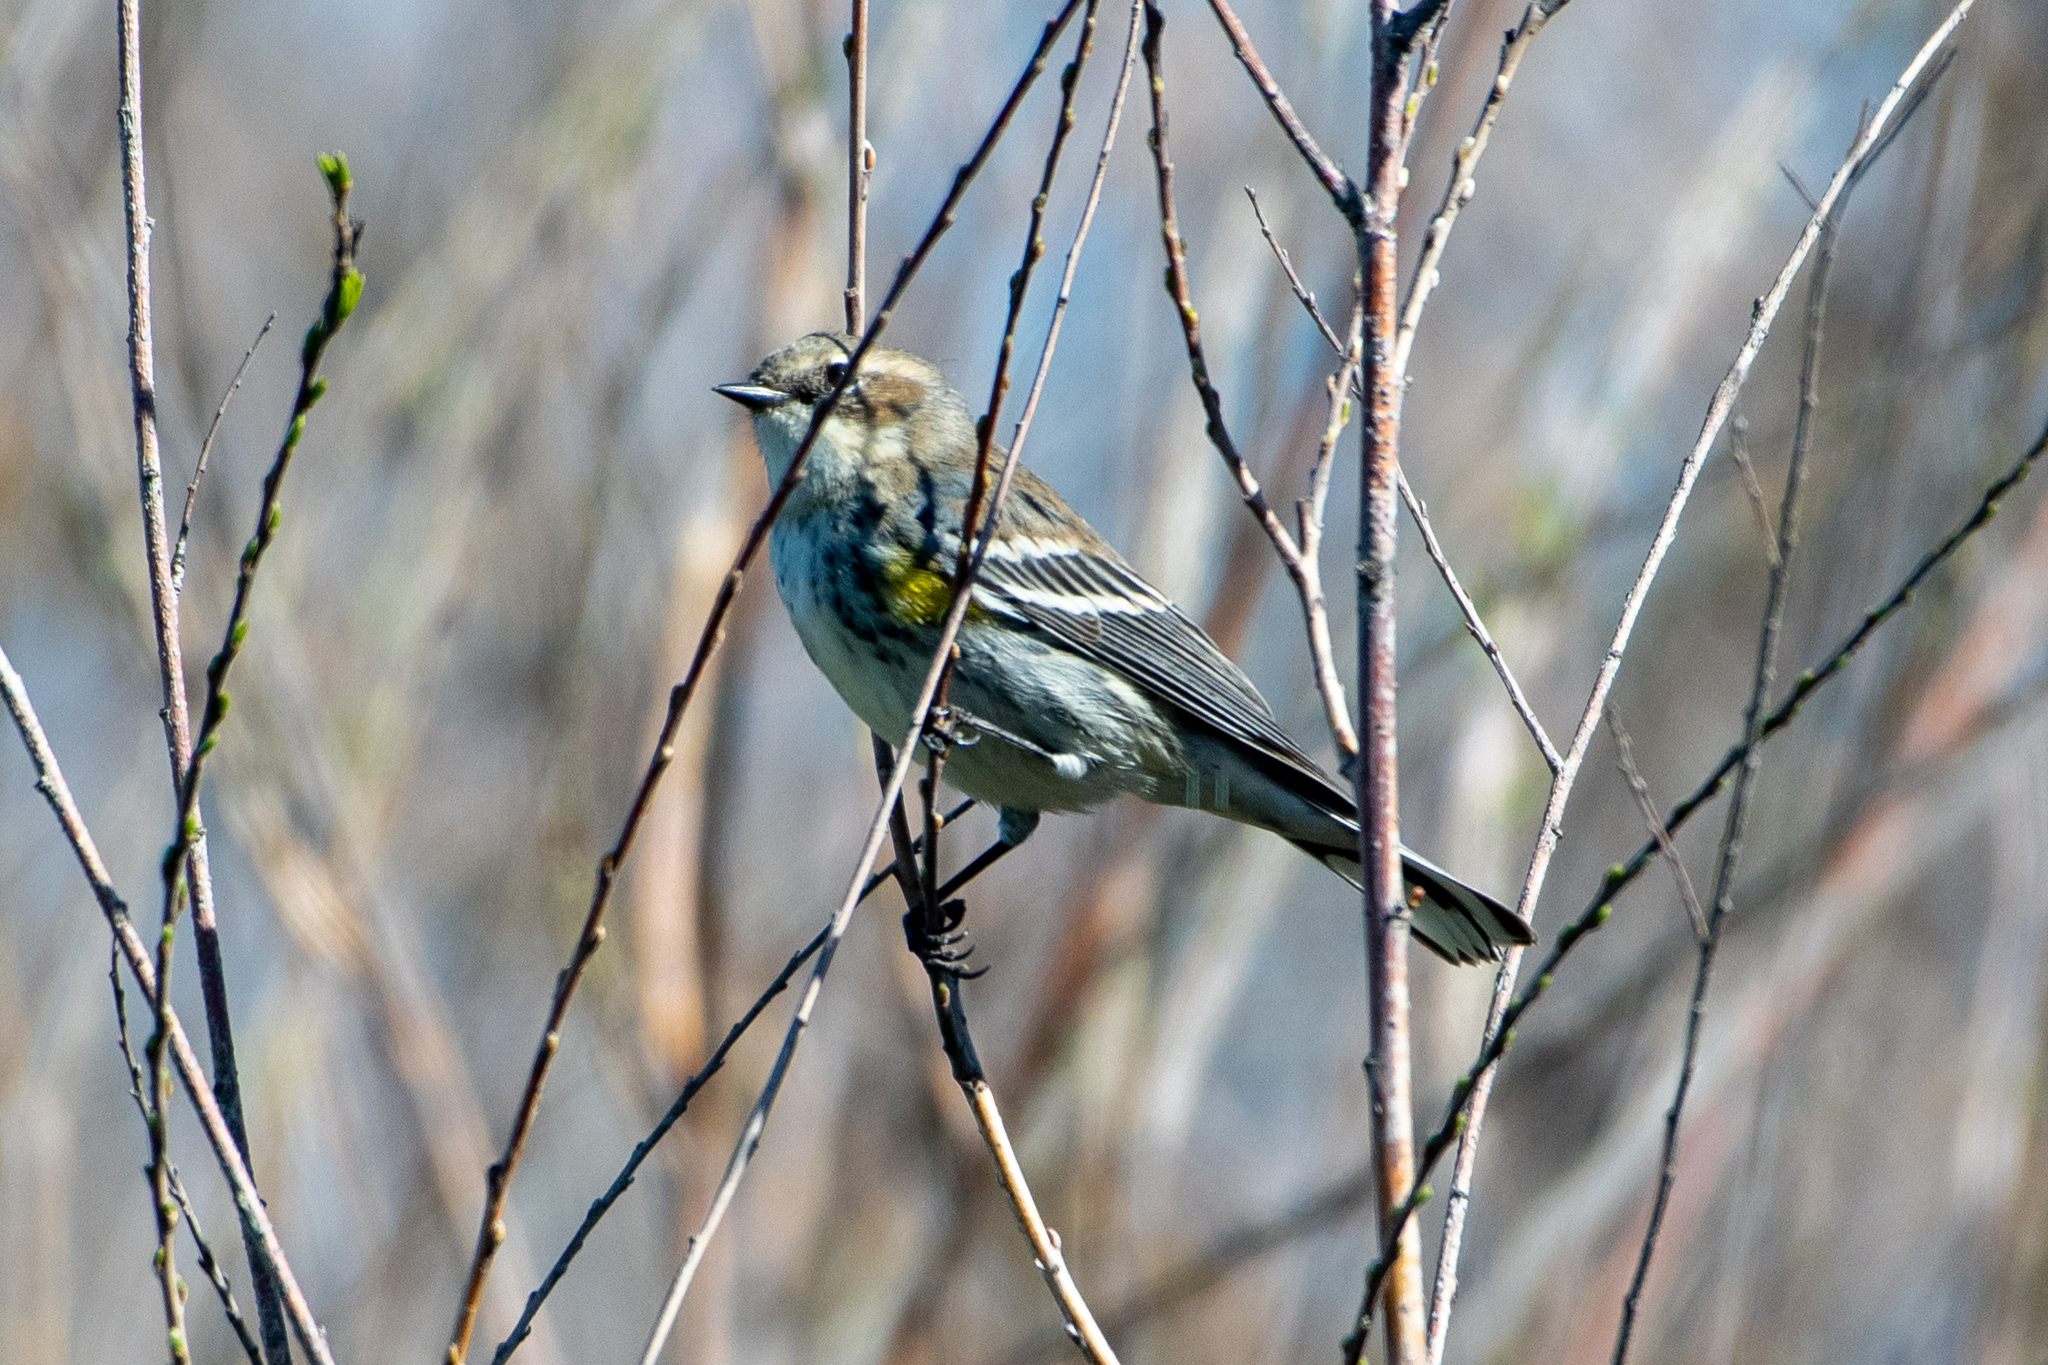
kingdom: Animalia
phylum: Chordata
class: Aves
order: Passeriformes
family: Parulidae
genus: Setophaga
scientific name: Setophaga coronata
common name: Myrtle warbler
